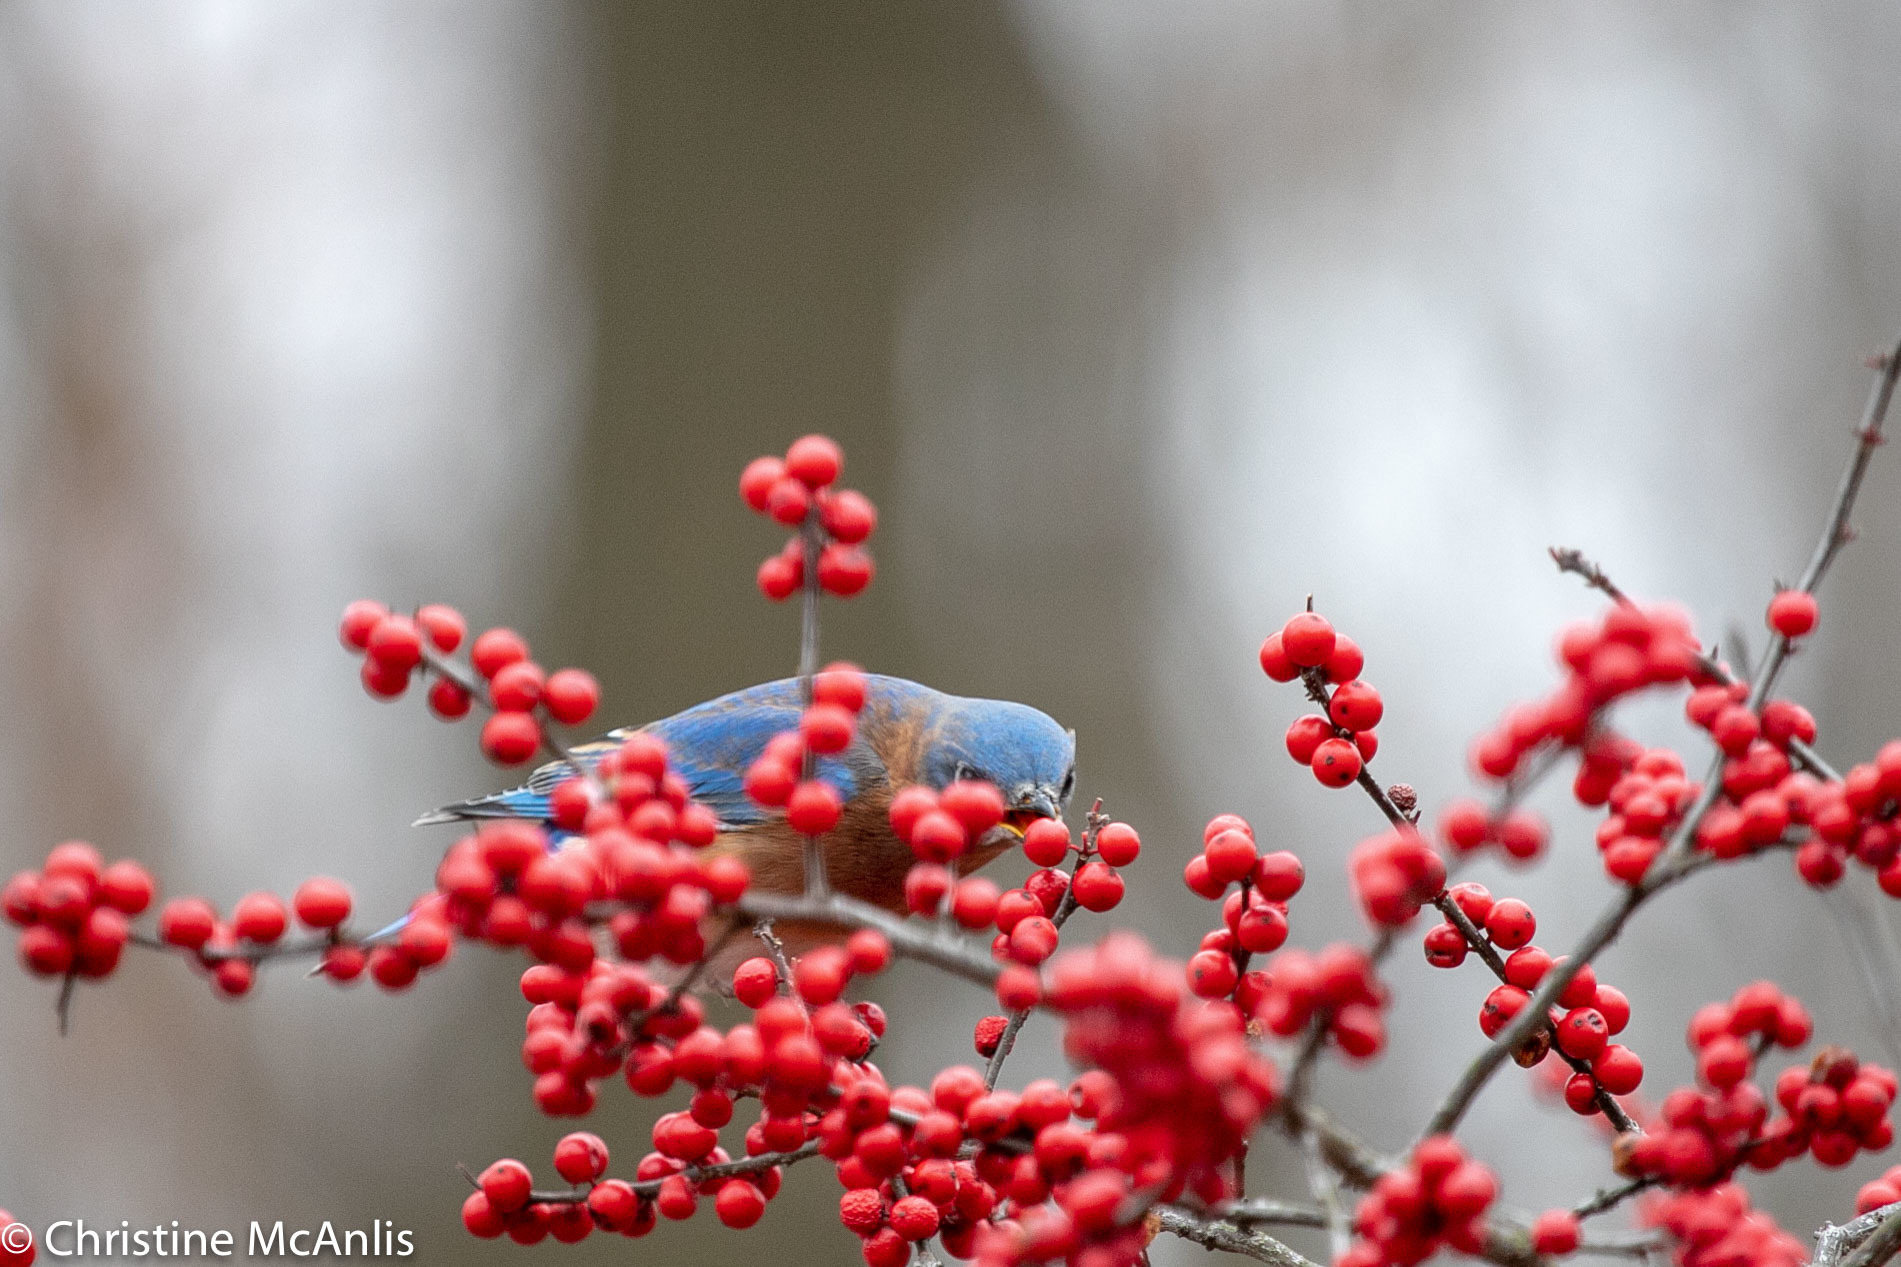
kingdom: Animalia
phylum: Chordata
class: Aves
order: Passeriformes
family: Turdidae
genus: Sialia
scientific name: Sialia sialis
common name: Eastern bluebird
